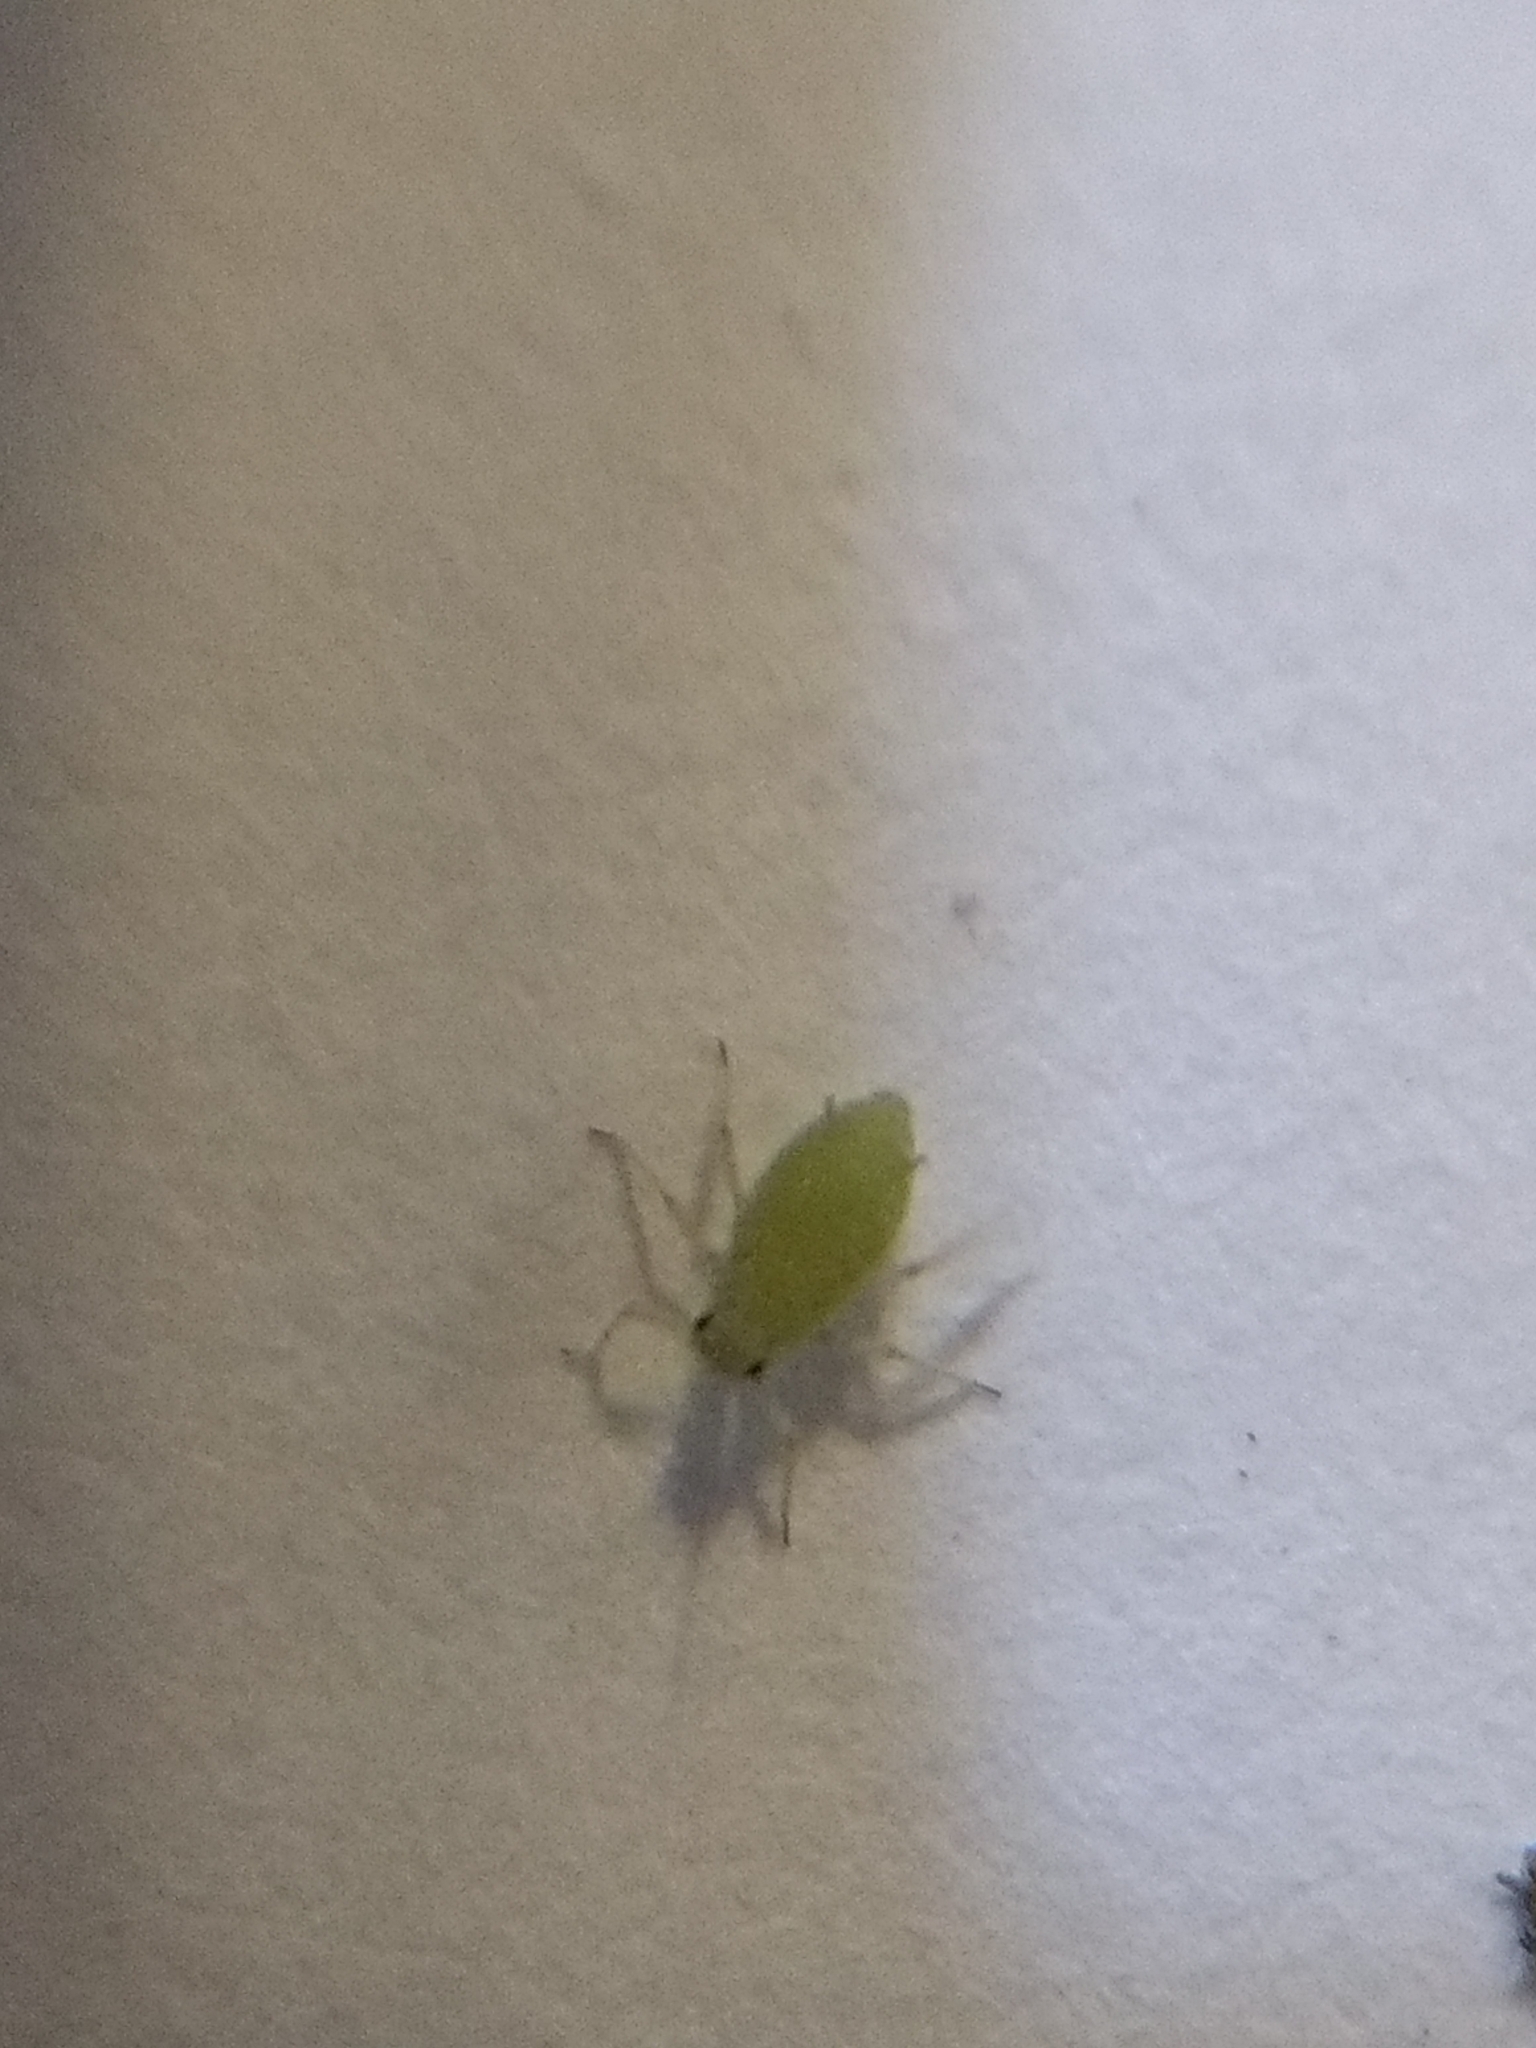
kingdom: Animalia
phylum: Arthropoda
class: Insecta
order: Hemiptera
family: Aphididae
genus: Brevicoryne
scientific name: Brevicoryne brassicae
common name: Cabbage aphid
